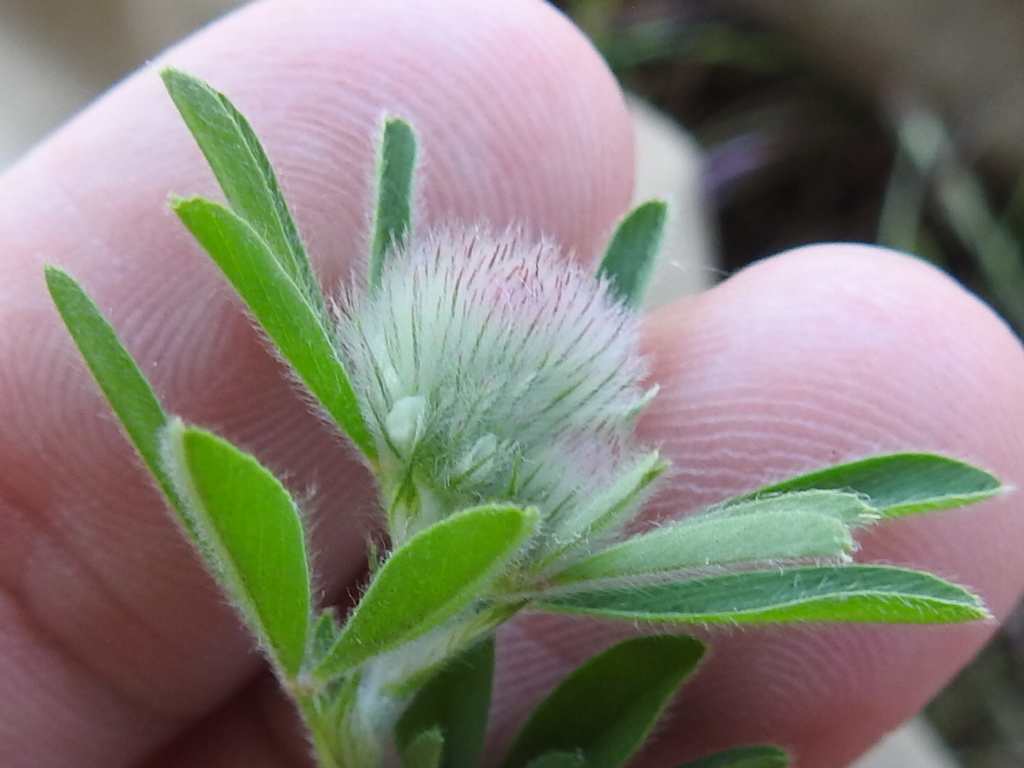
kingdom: Plantae
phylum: Tracheophyta
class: Magnoliopsida
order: Fabales
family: Fabaceae
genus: Trifolium
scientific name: Trifolium arvense
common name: Hare's-foot clover
